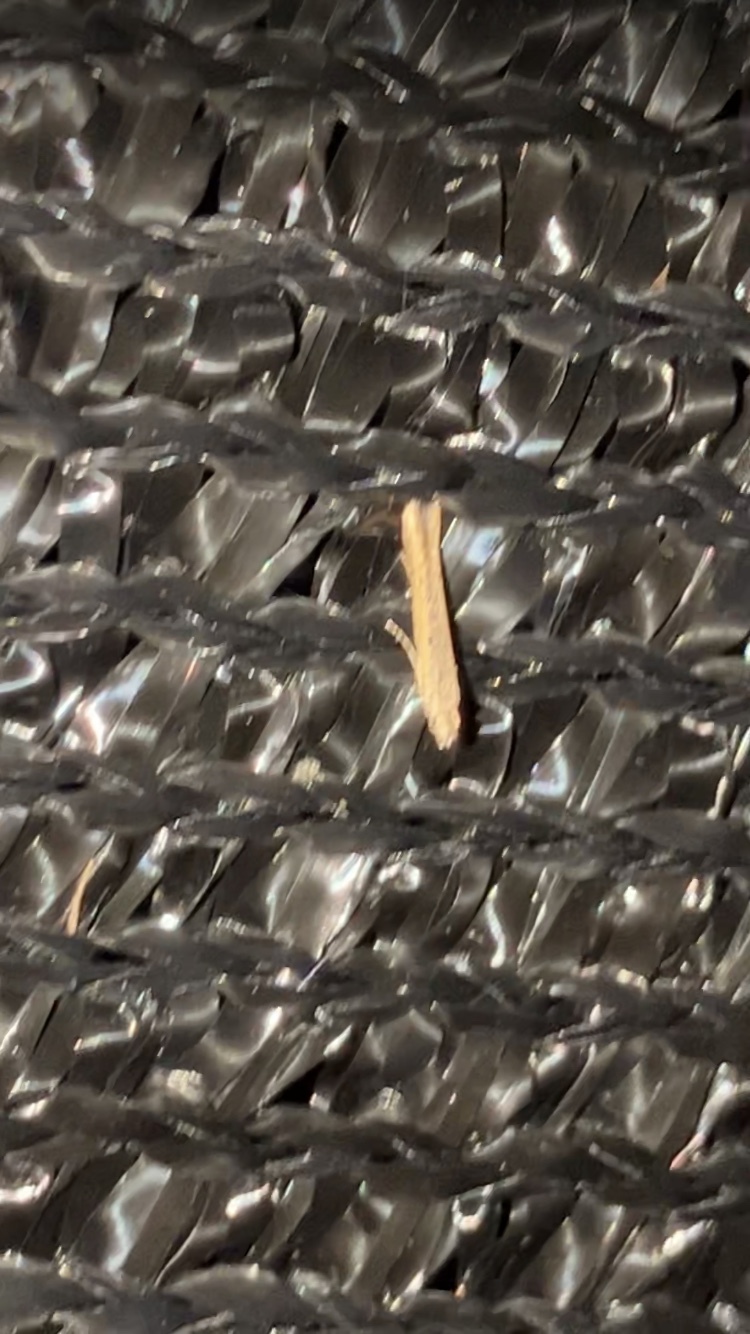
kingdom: Animalia
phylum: Arthropoda
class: Insecta
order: Lepidoptera
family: Batrachedridae
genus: Batrachedra
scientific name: Batrachedra
